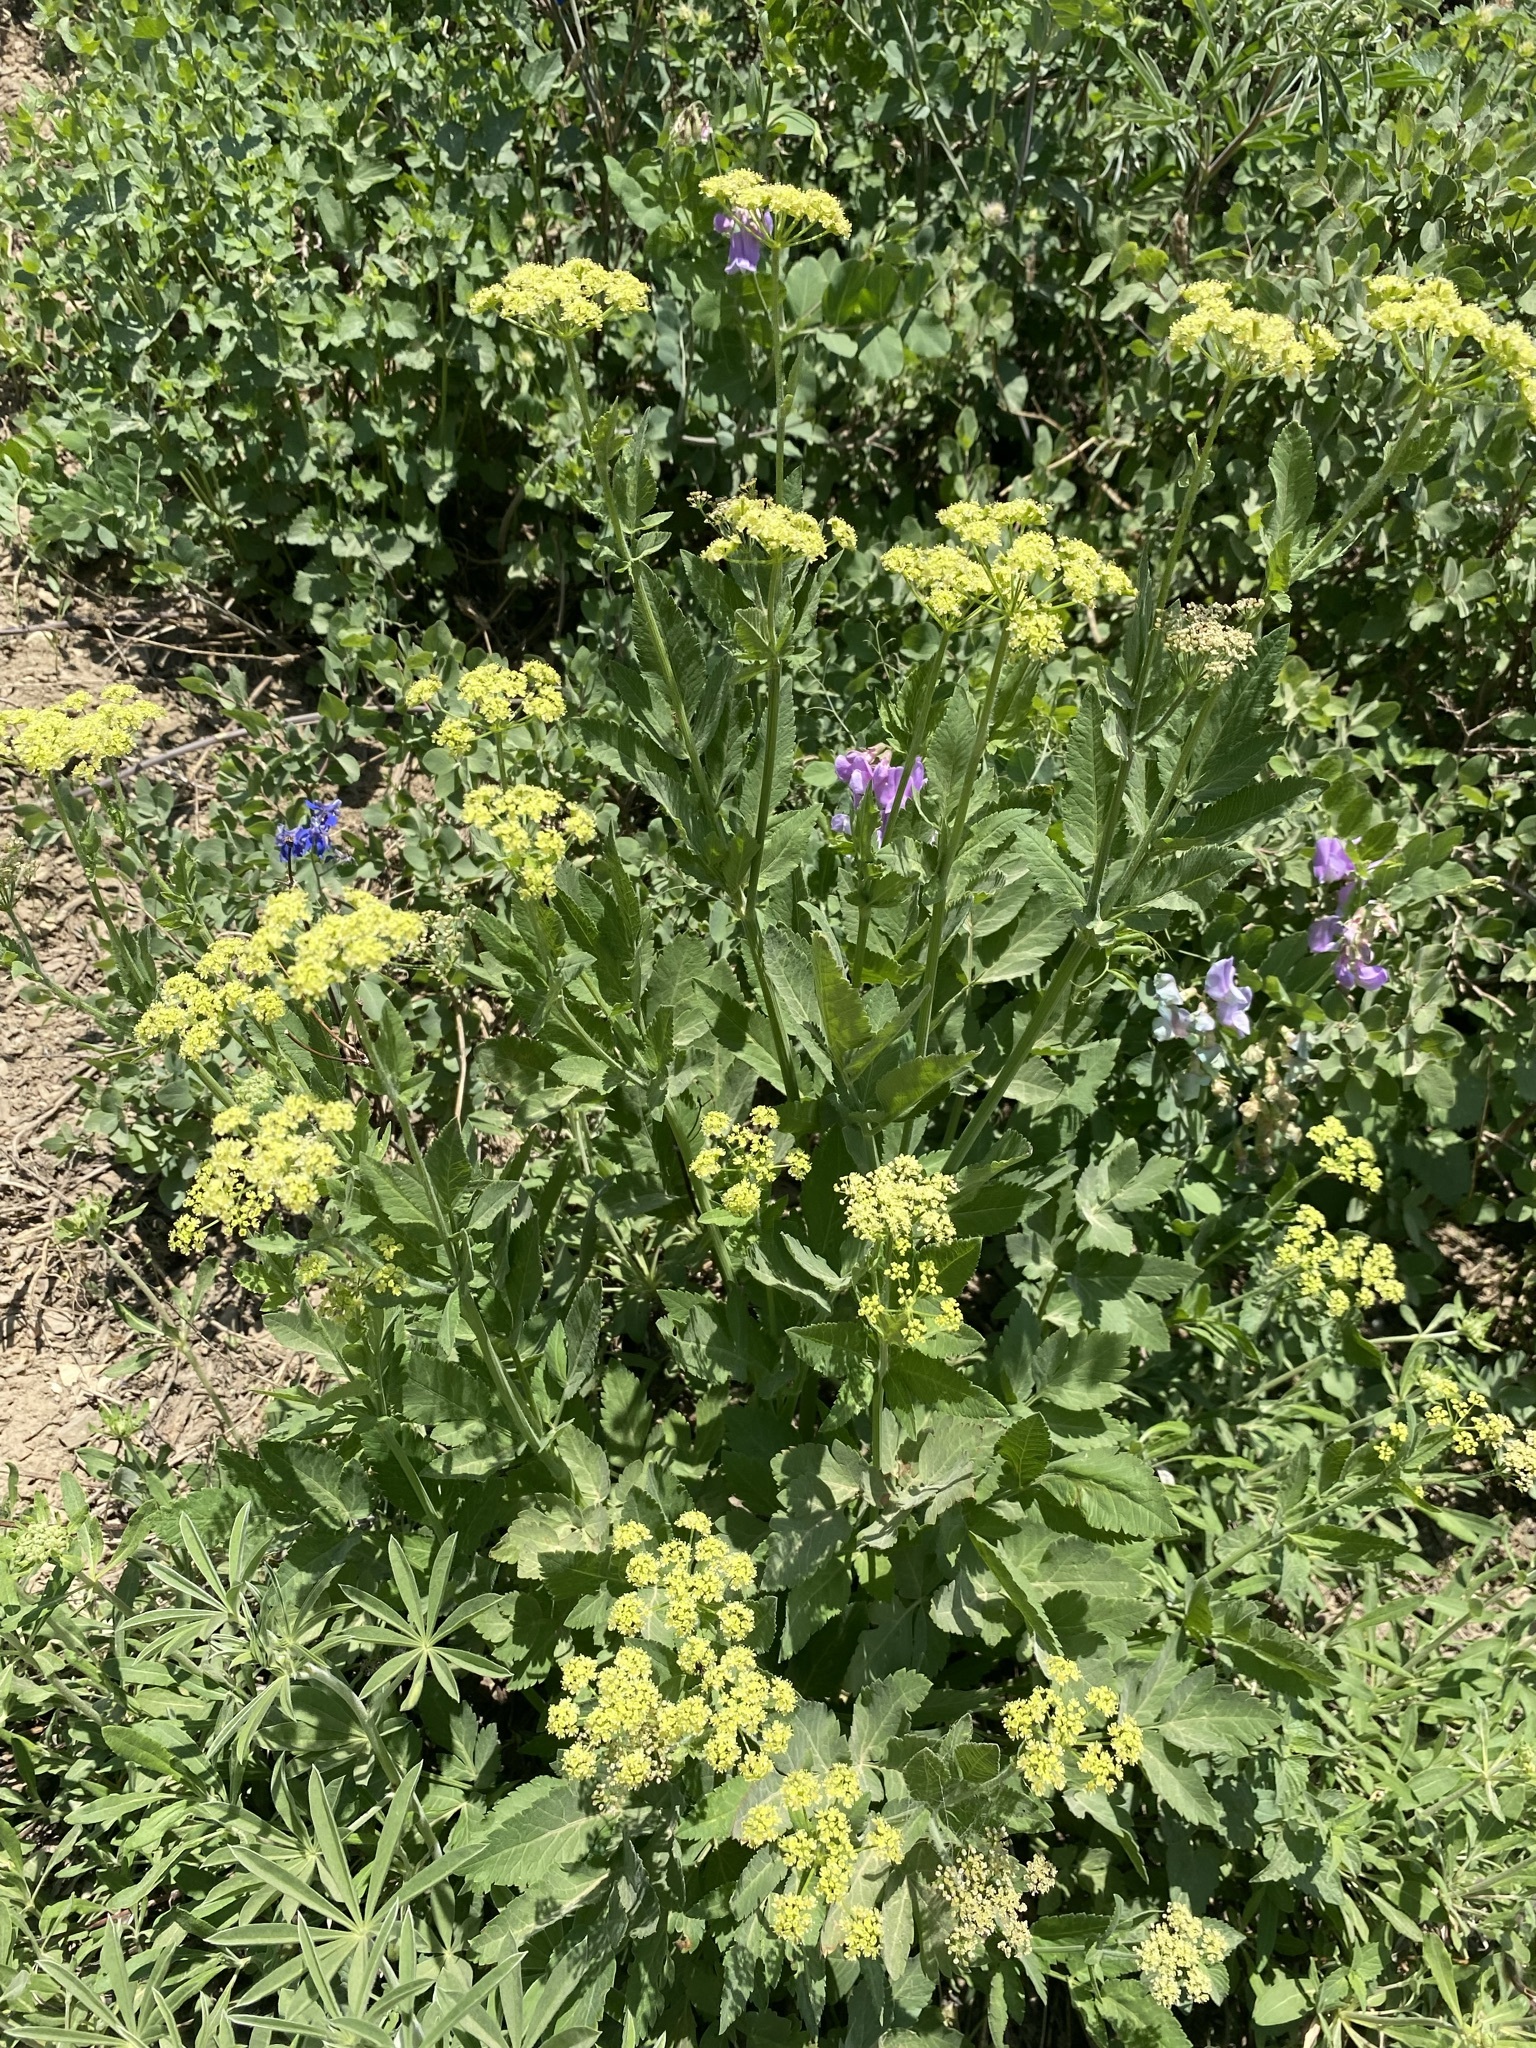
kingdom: Plantae
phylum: Tracheophyta
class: Magnoliopsida
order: Apiales
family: Apiaceae
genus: Osmorhiza
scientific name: Osmorhiza occidentalis
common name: Western sweet cicely
